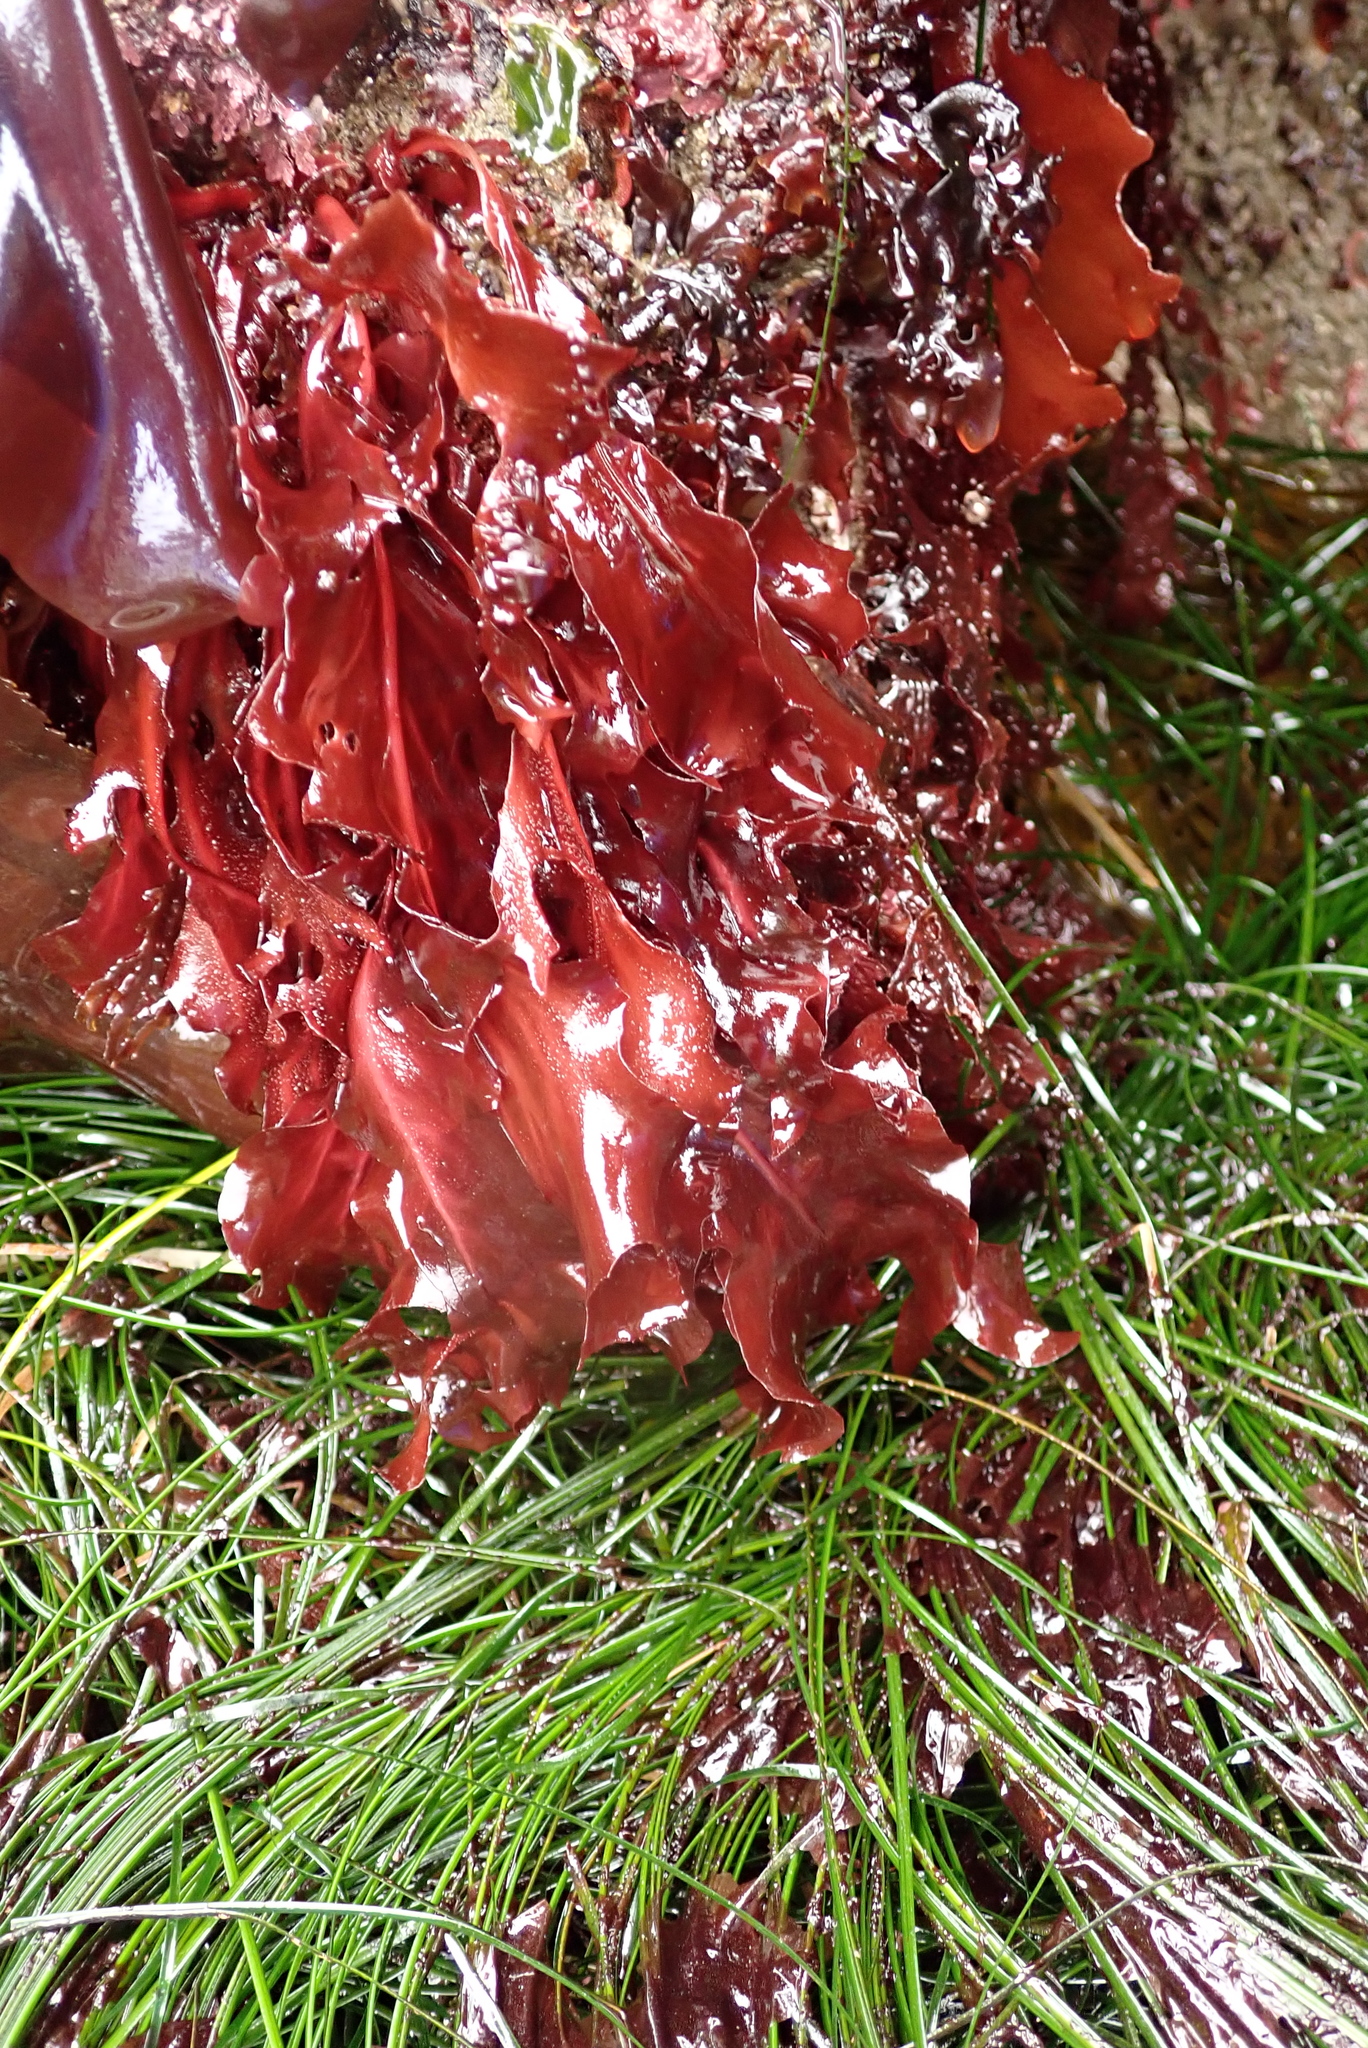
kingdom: Plantae
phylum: Rhodophyta
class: Florideophyceae
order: Gigartinales
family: Kallymeniaceae
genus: Erythrophyllum
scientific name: Erythrophyllum delesserioides
